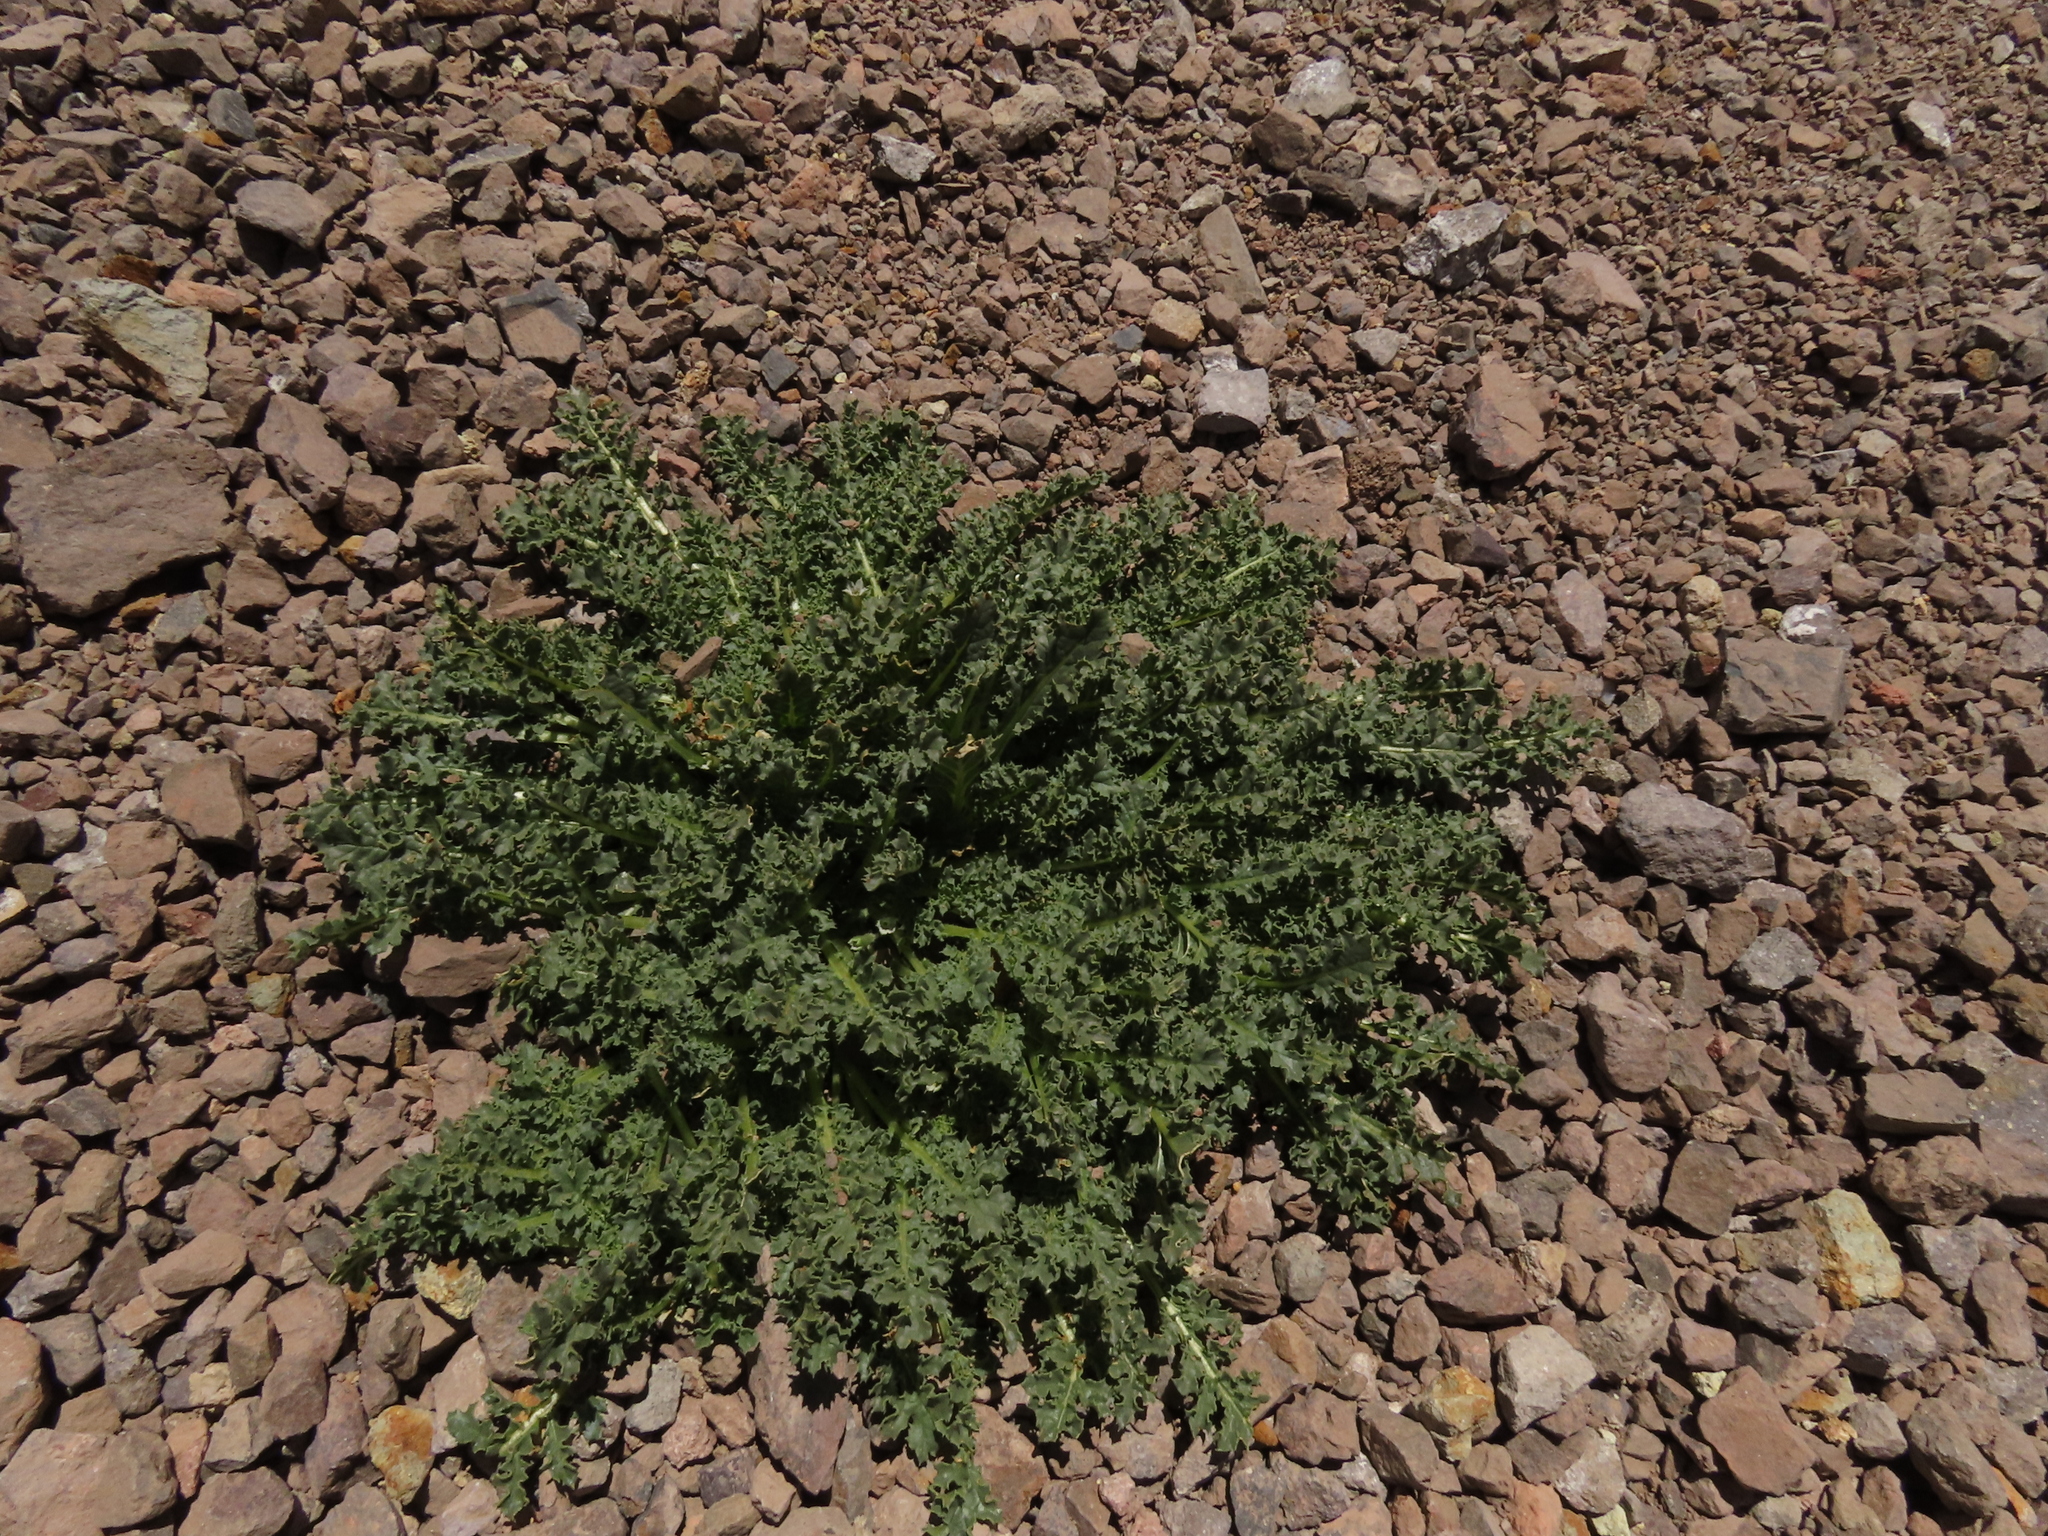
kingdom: Plantae
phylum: Tracheophyta
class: Magnoliopsida
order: Solanales
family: Solanaceae
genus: Jaborosa
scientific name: Jaborosa caulescens
